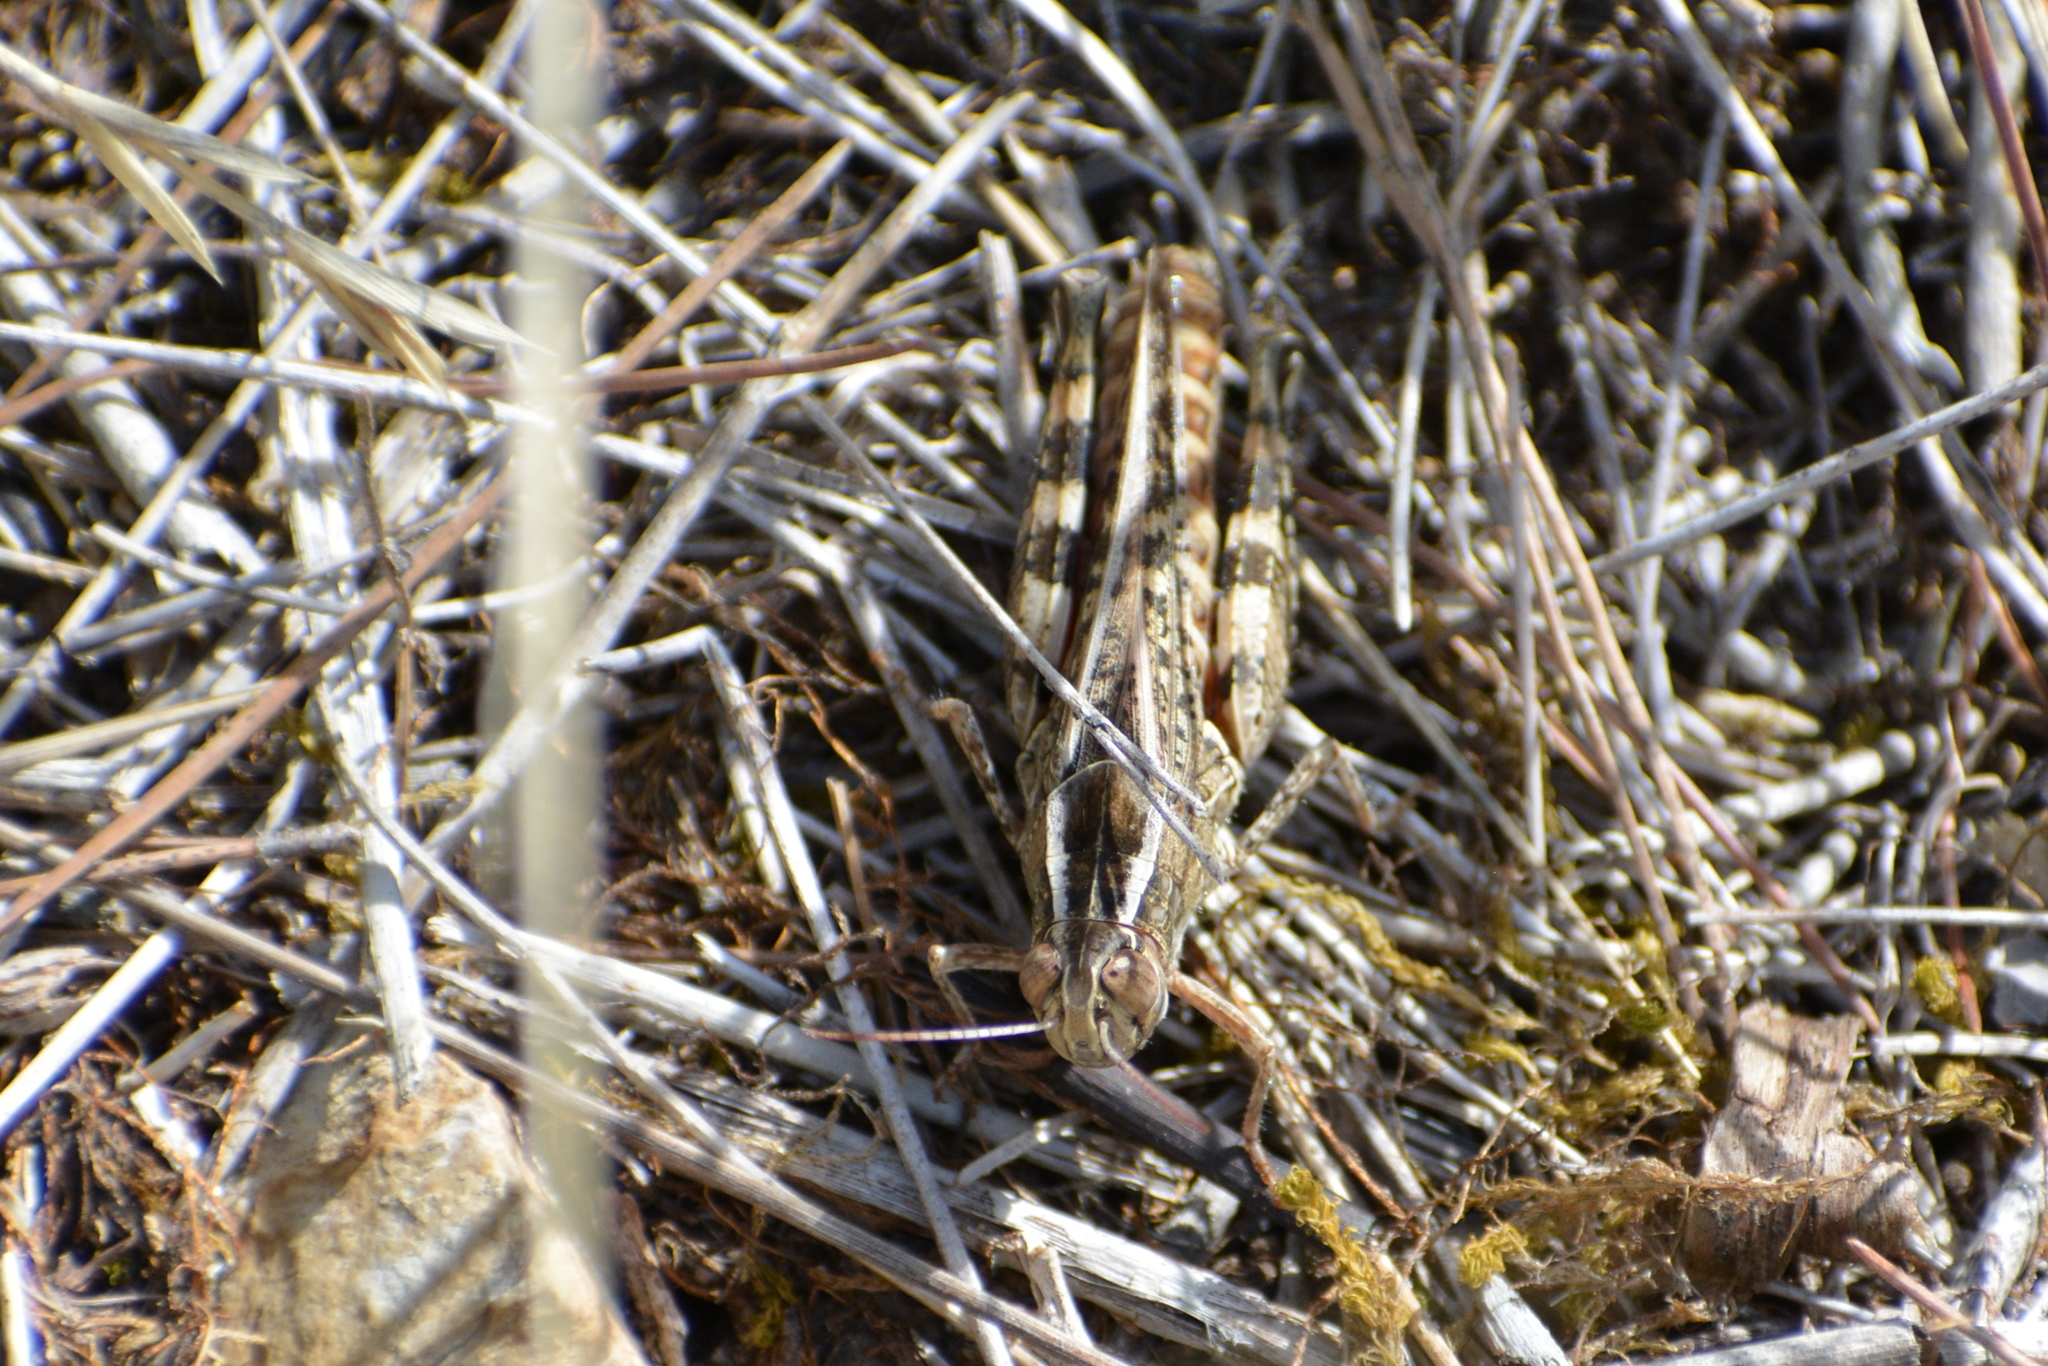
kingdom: Animalia
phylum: Arthropoda
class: Insecta
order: Orthoptera
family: Acrididae
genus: Calliptamus
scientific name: Calliptamus italicus
